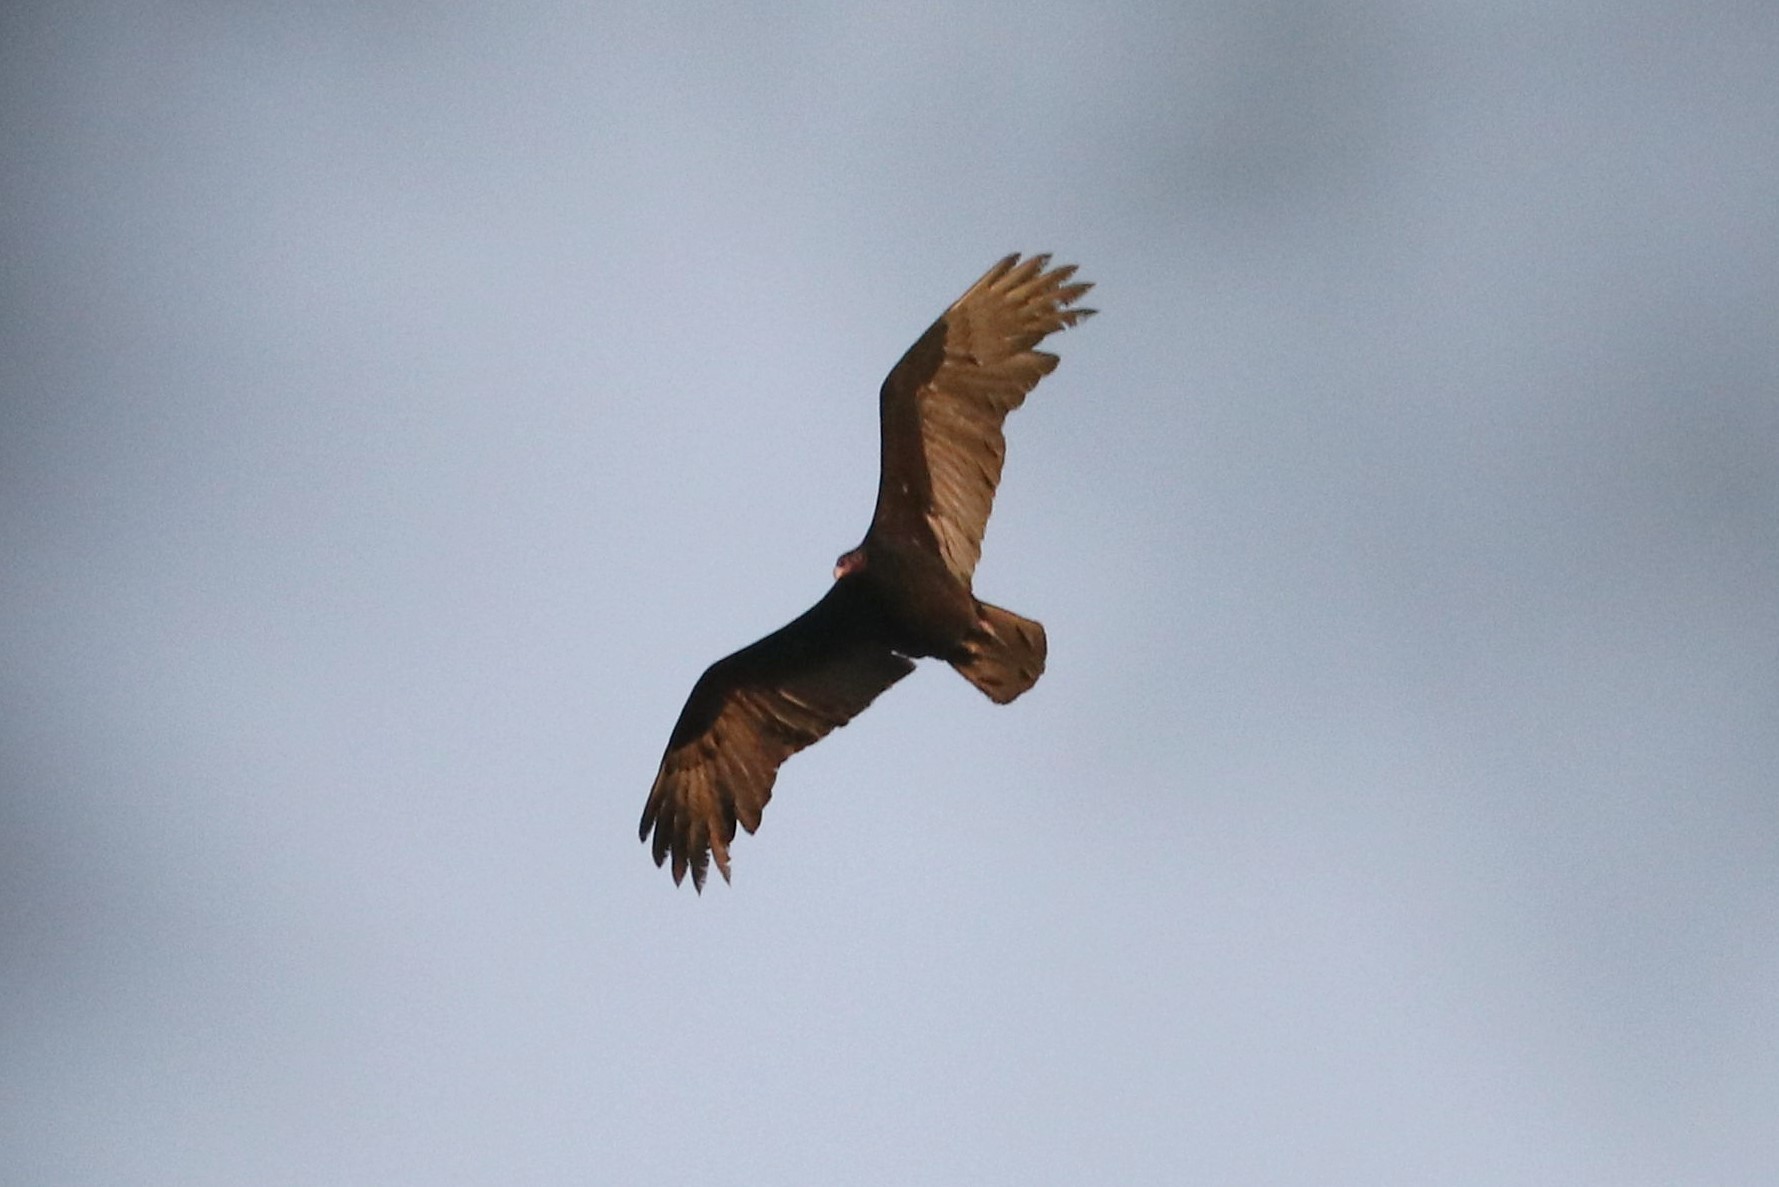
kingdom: Animalia
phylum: Chordata
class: Aves
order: Accipitriformes
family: Cathartidae
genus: Cathartes
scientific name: Cathartes aura
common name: Turkey vulture
